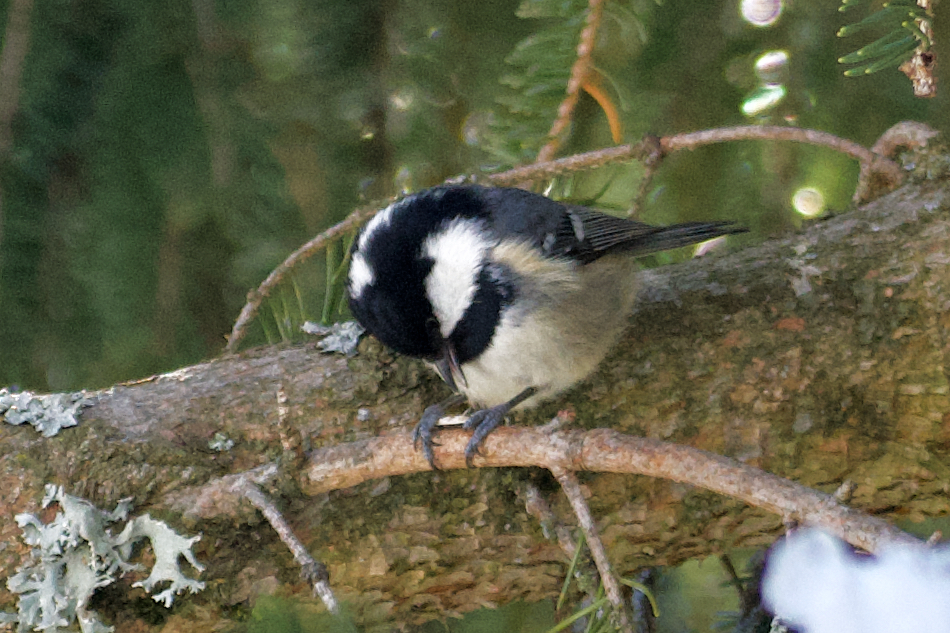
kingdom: Animalia
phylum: Chordata
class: Aves
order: Passeriformes
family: Paridae
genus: Periparus
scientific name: Periparus ater
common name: Coal tit
